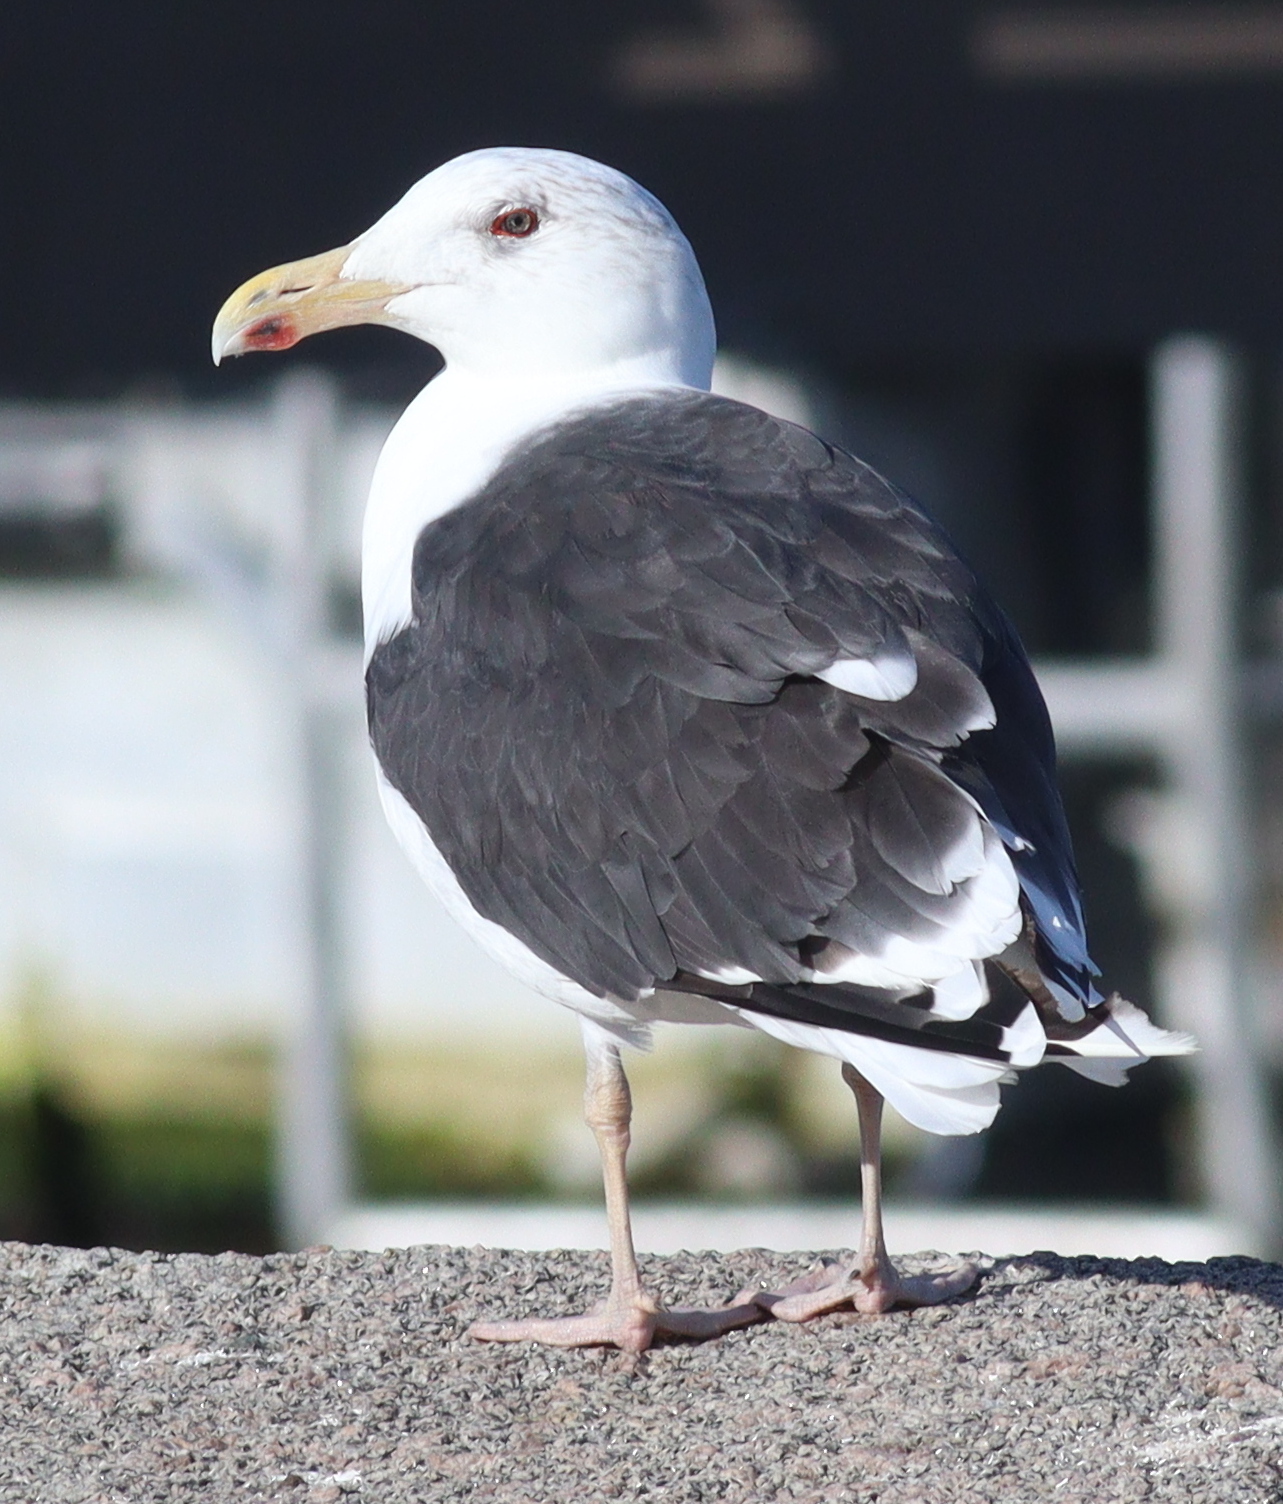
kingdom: Animalia
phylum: Chordata
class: Aves
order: Charadriiformes
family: Laridae
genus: Larus
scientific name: Larus marinus
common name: Great black-backed gull
